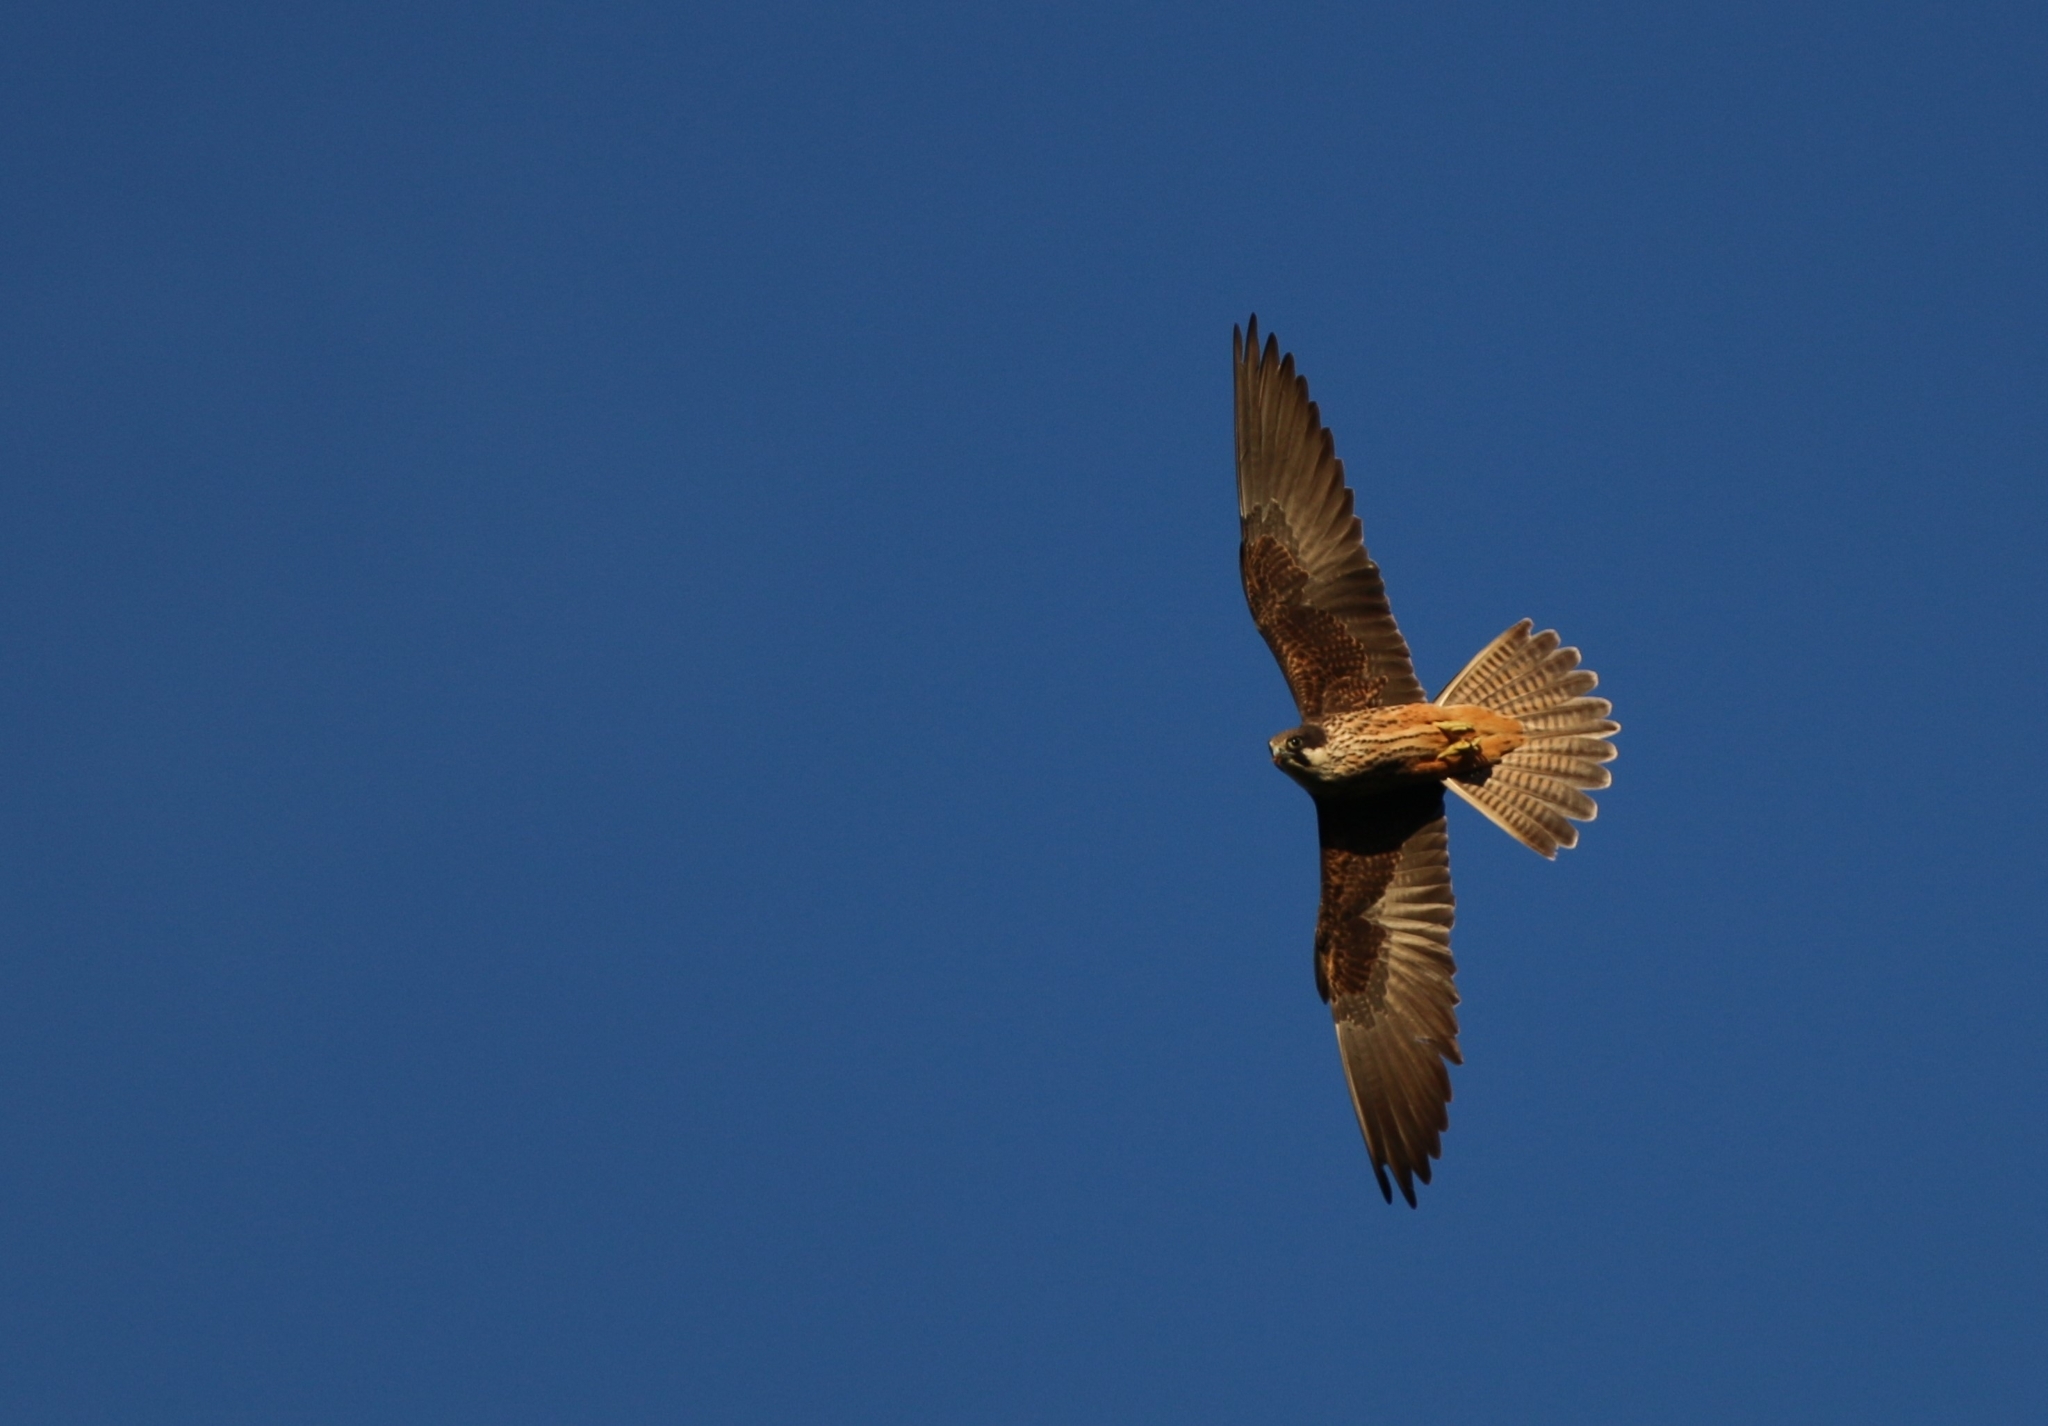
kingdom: Animalia
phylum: Chordata
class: Aves
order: Falconiformes
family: Falconidae
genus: Falco
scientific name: Falco eleonorae
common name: Eleonora's falcon
